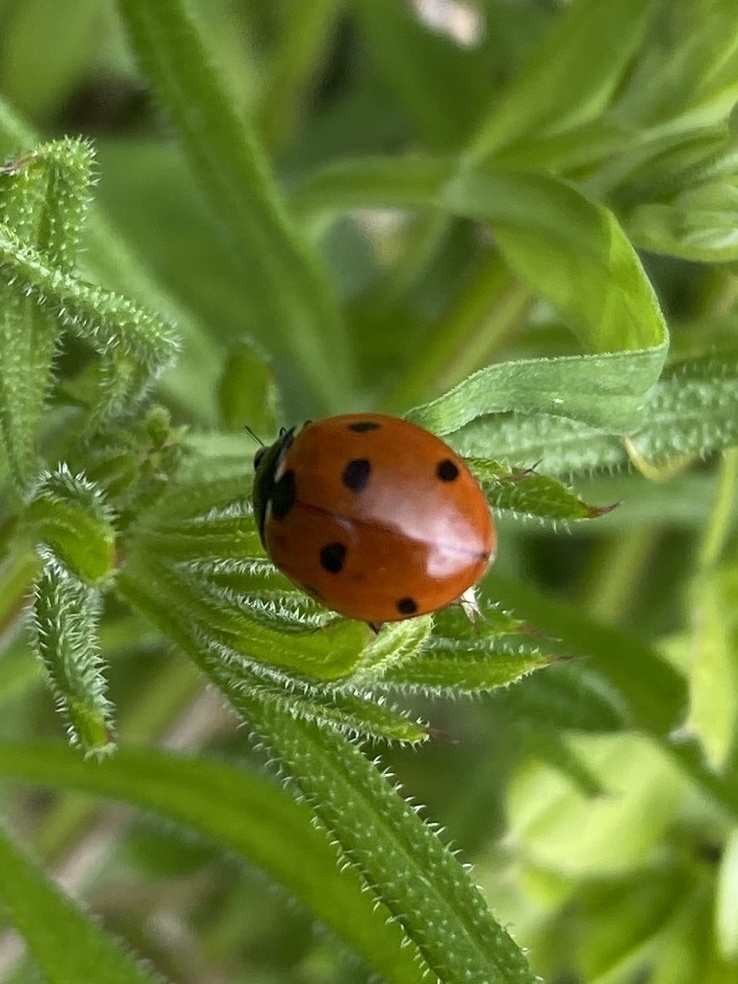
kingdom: Animalia
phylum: Arthropoda
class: Insecta
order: Coleoptera
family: Coccinellidae
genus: Coccinella
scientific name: Coccinella septempunctata
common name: Sevenspotted lady beetle
